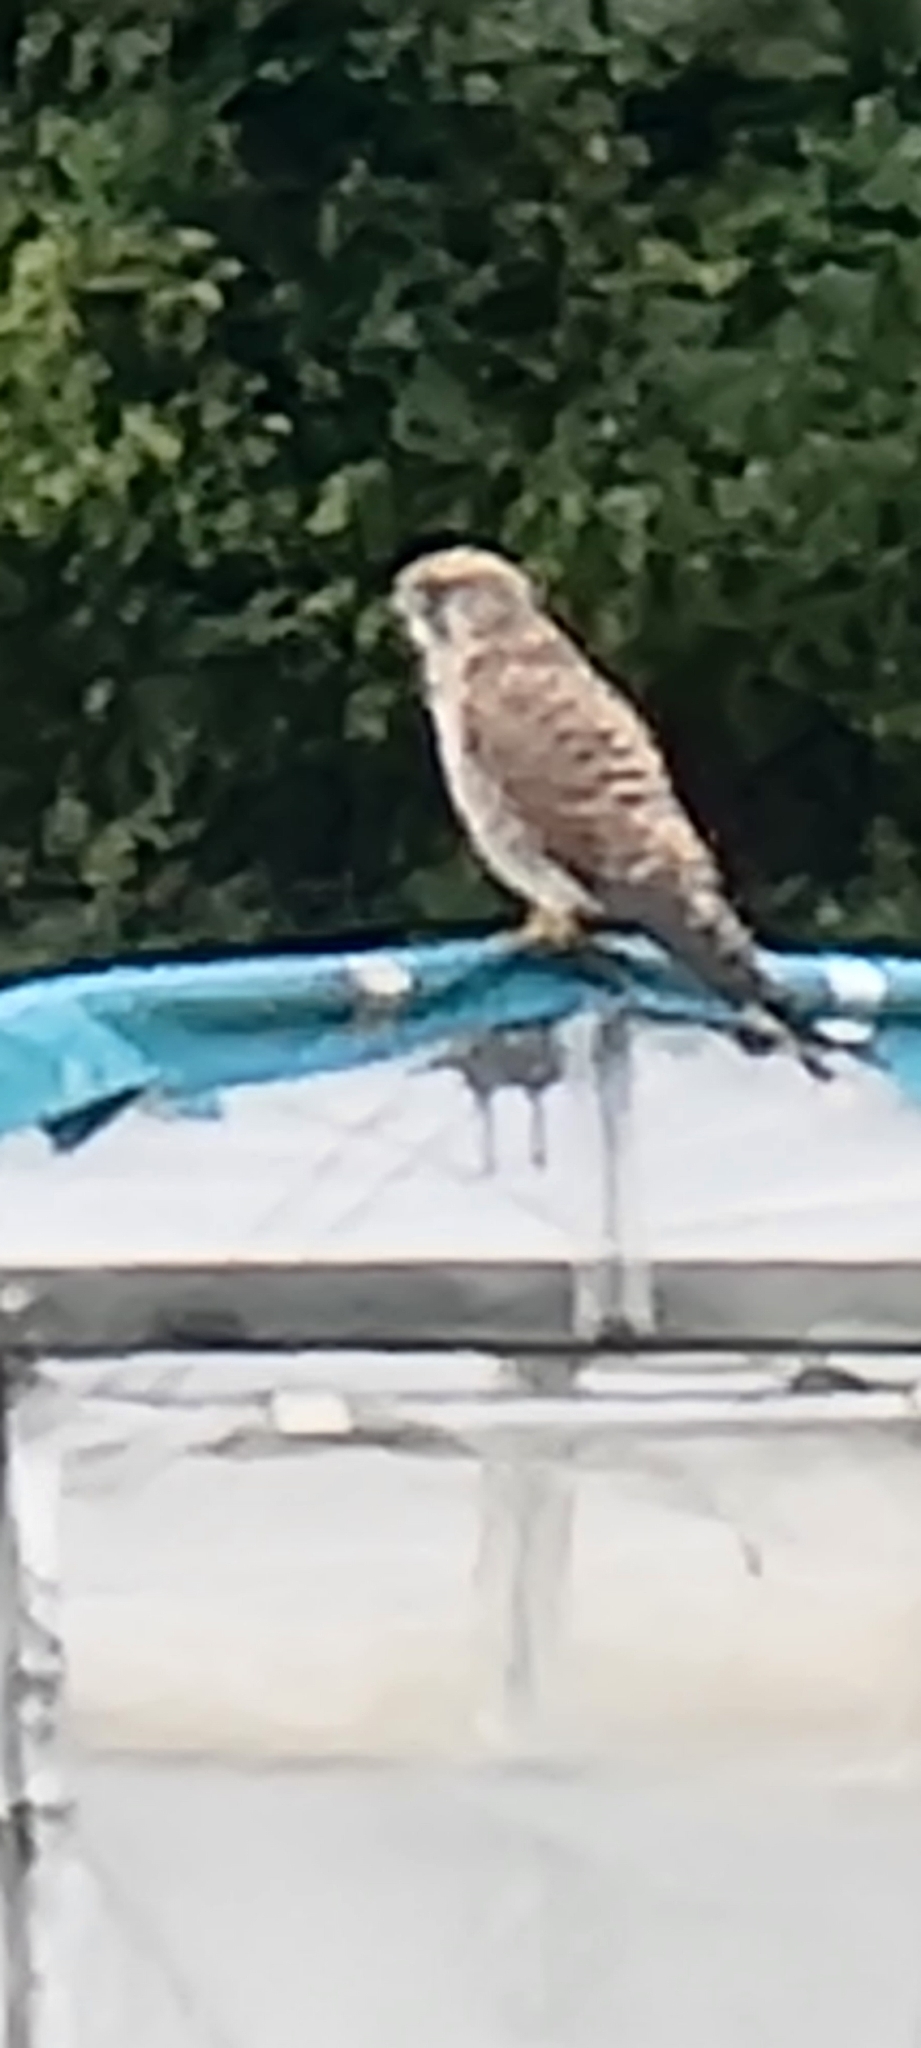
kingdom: Animalia
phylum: Chordata
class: Aves
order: Falconiformes
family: Falconidae
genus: Falco
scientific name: Falco tinnunculus
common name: Common kestrel
